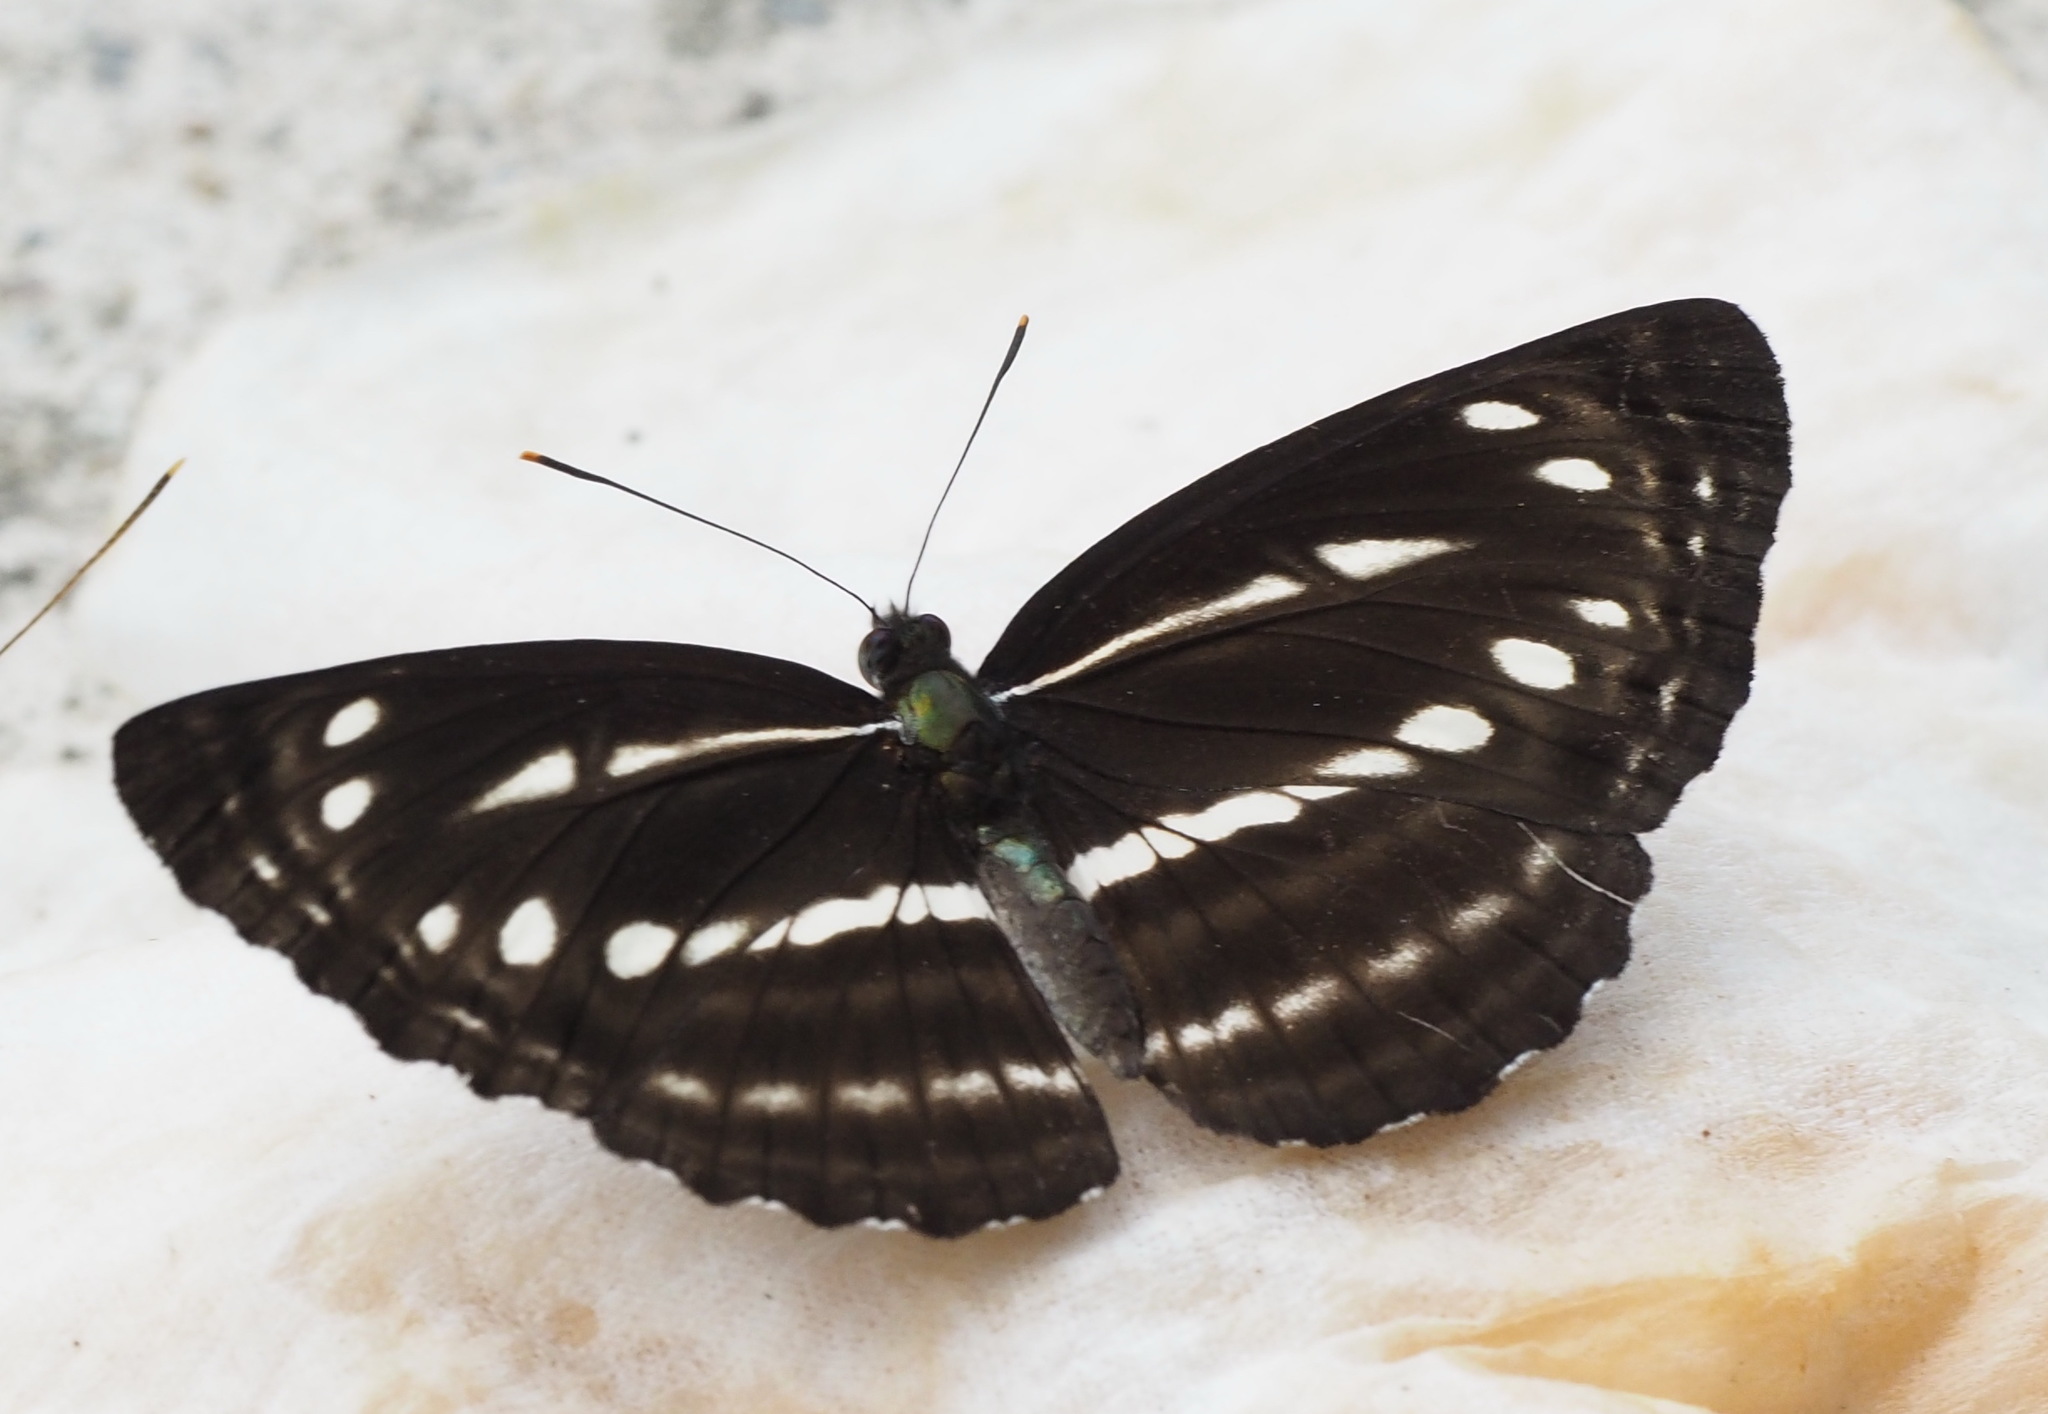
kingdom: Animalia
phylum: Arthropoda
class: Insecta
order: Lepidoptera
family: Nymphalidae
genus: Neptis
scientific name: Neptis nata
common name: Sullied brown sailer
